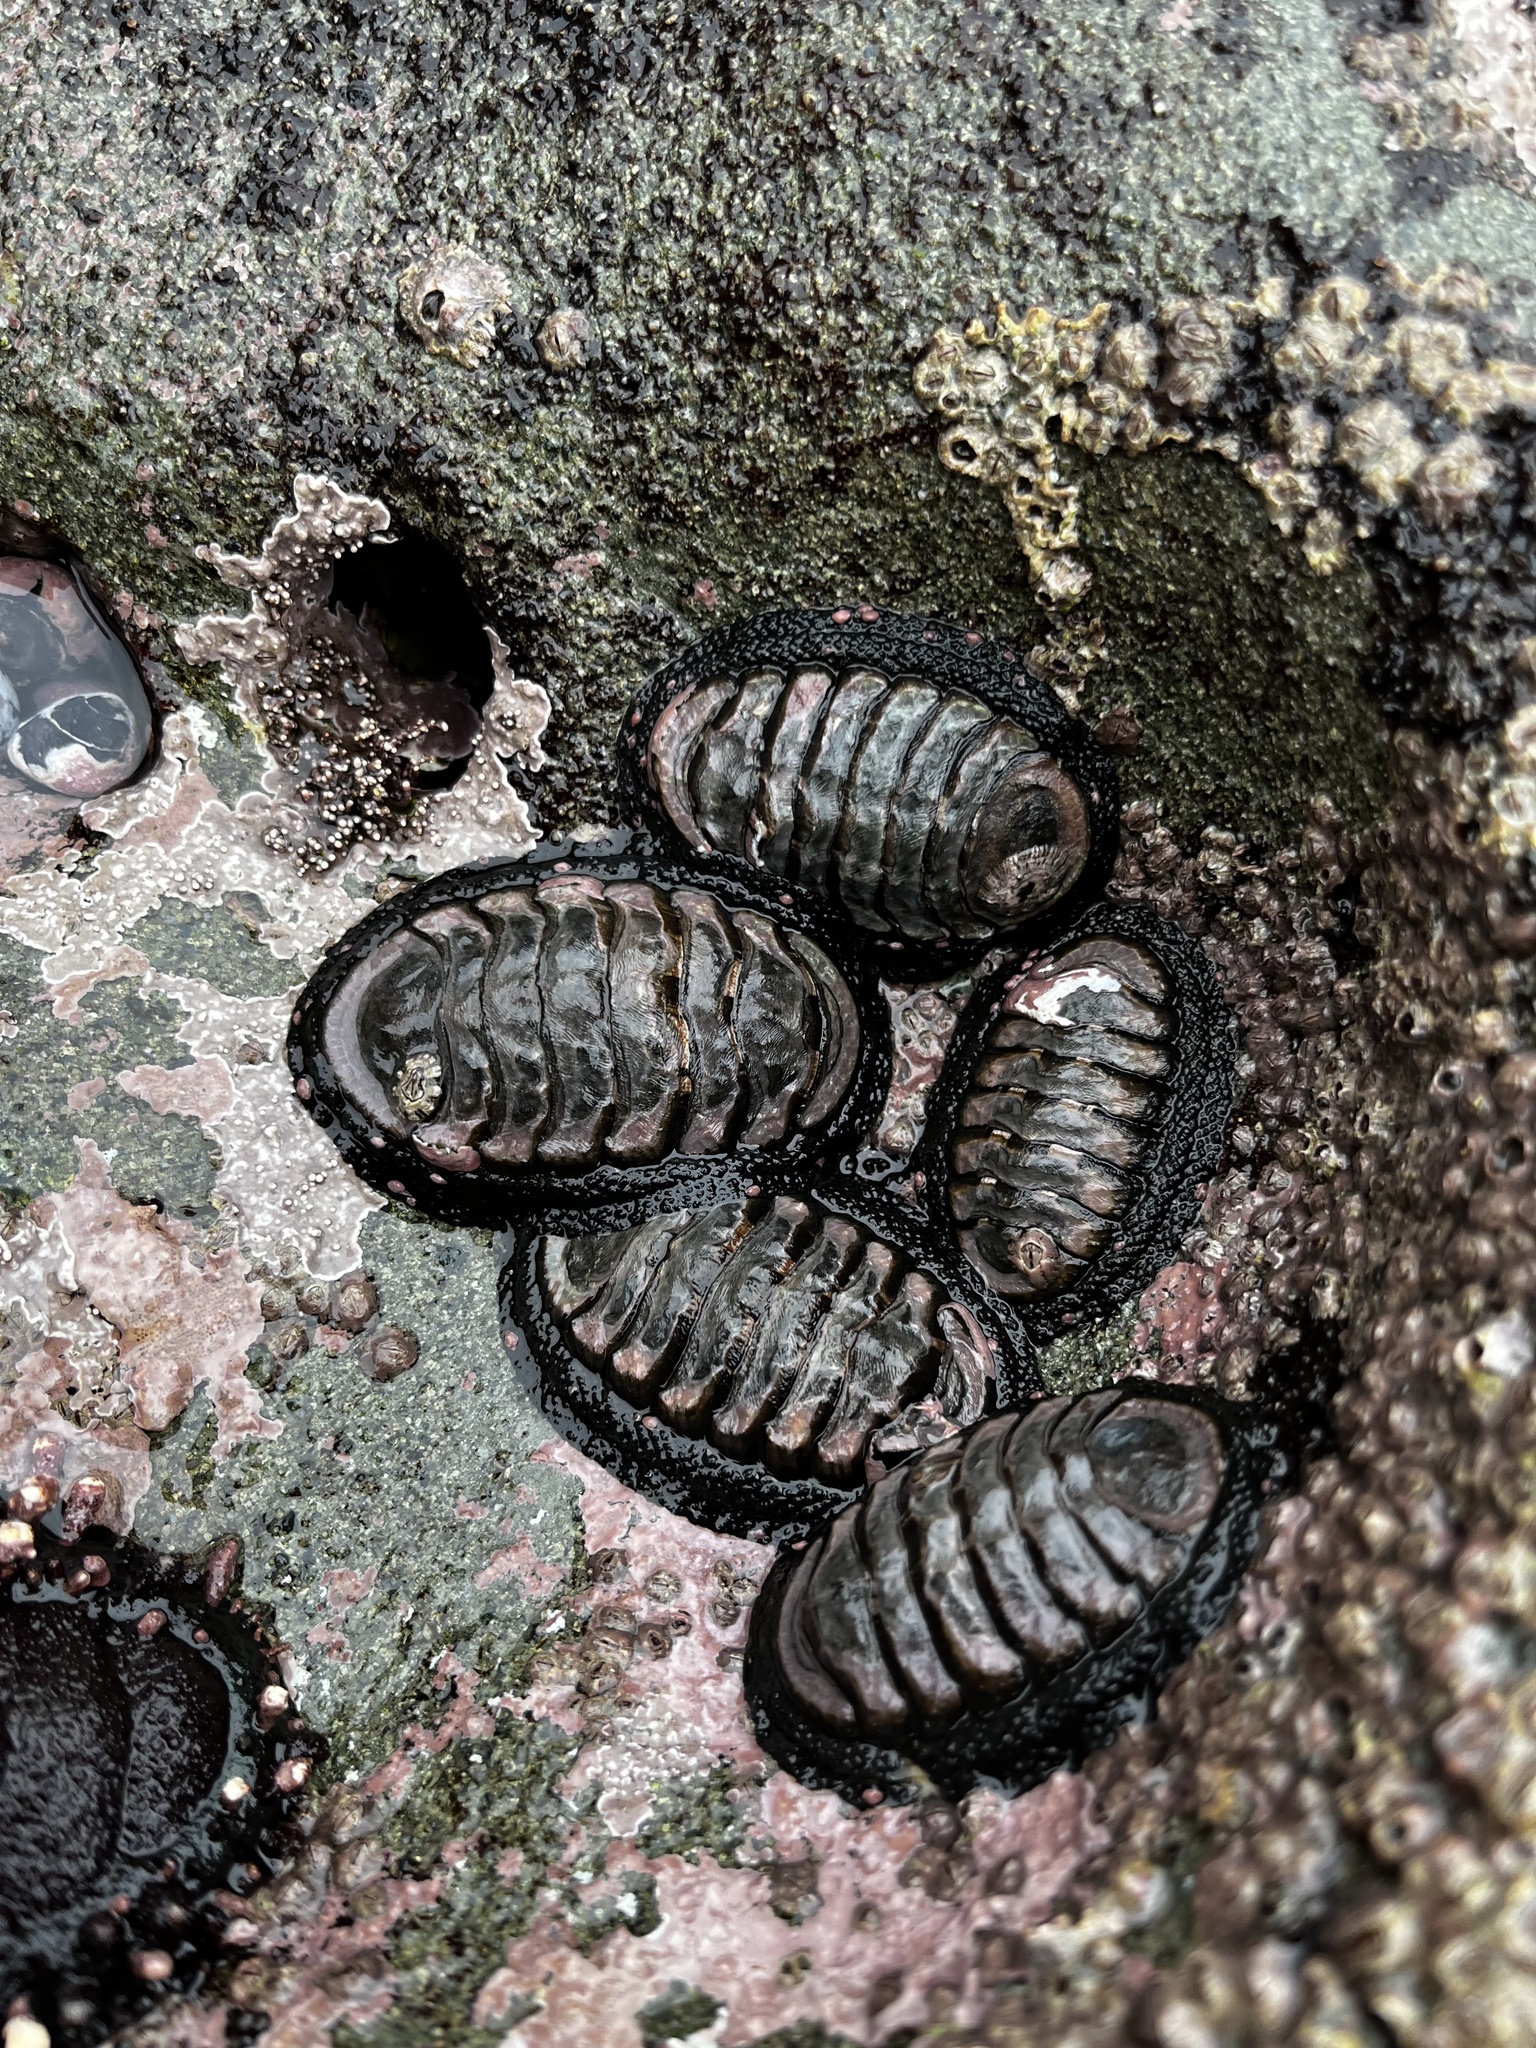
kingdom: Animalia
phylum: Mollusca
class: Polyplacophora
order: Chitonida
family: Chitonidae
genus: Chiton
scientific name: Chiton granosus
